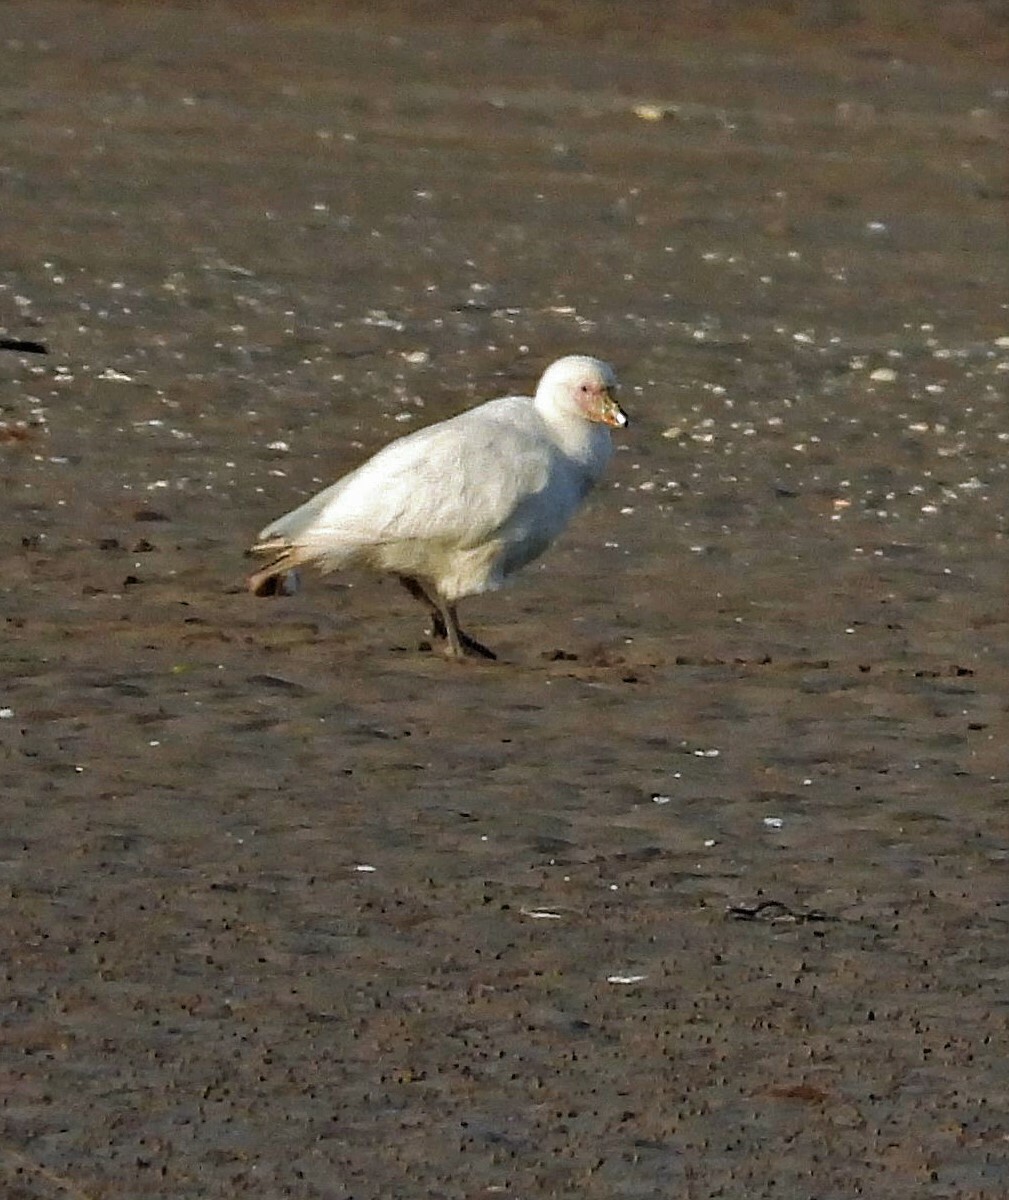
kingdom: Animalia
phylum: Chordata
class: Aves
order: Charadriiformes
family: Chionidae
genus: Chionis
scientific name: Chionis albus
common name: Snowy sheathbill
